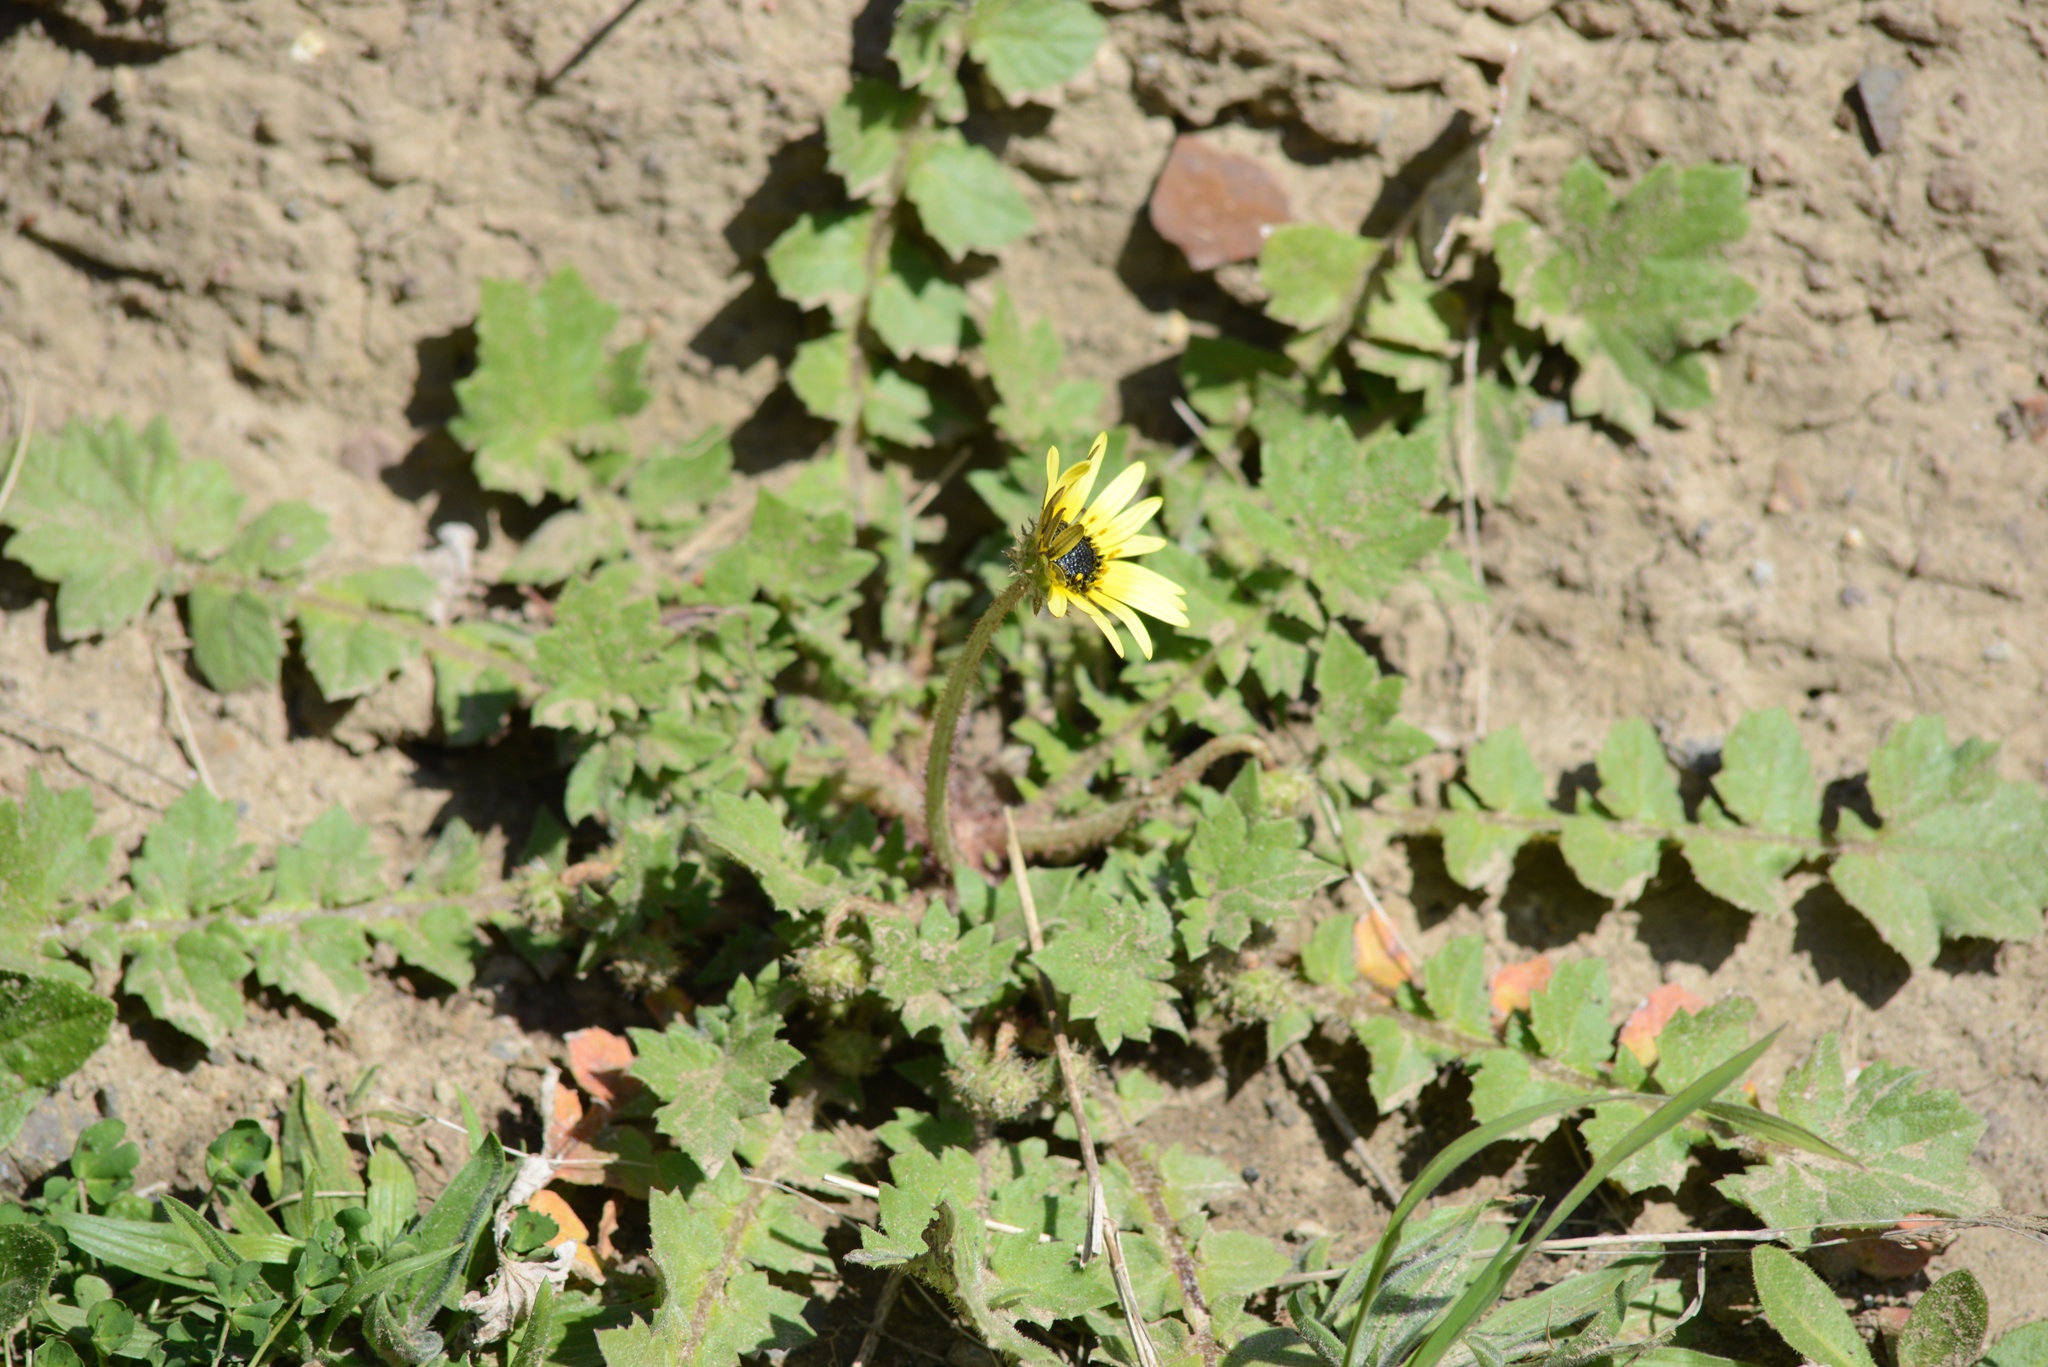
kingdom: Plantae
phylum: Tracheophyta
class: Magnoliopsida
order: Asterales
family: Asteraceae
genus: Arctotheca
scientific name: Arctotheca calendula
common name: Capeweed
